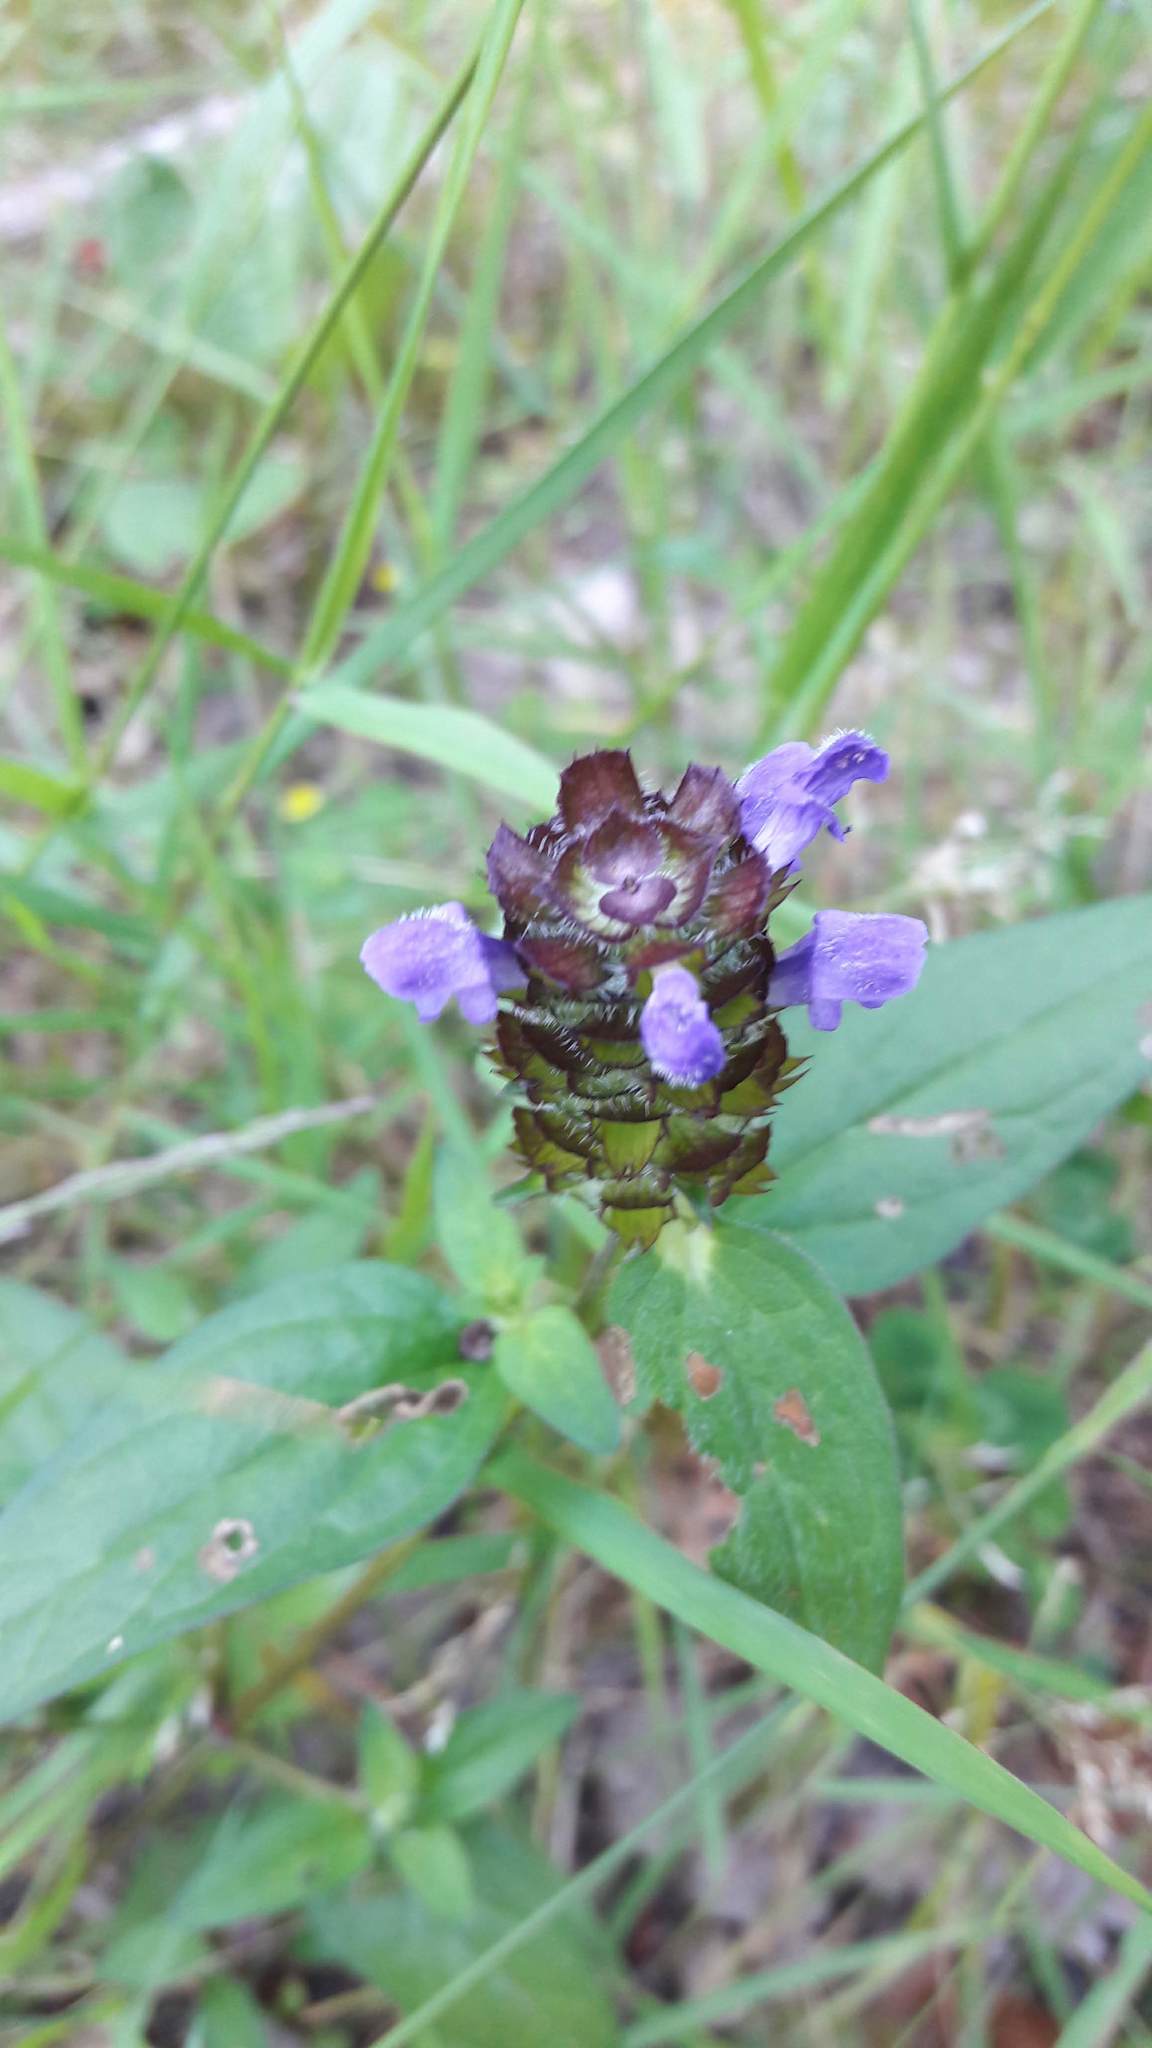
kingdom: Plantae
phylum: Tracheophyta
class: Magnoliopsida
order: Lamiales
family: Lamiaceae
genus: Prunella
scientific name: Prunella vulgaris
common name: Heal-all
